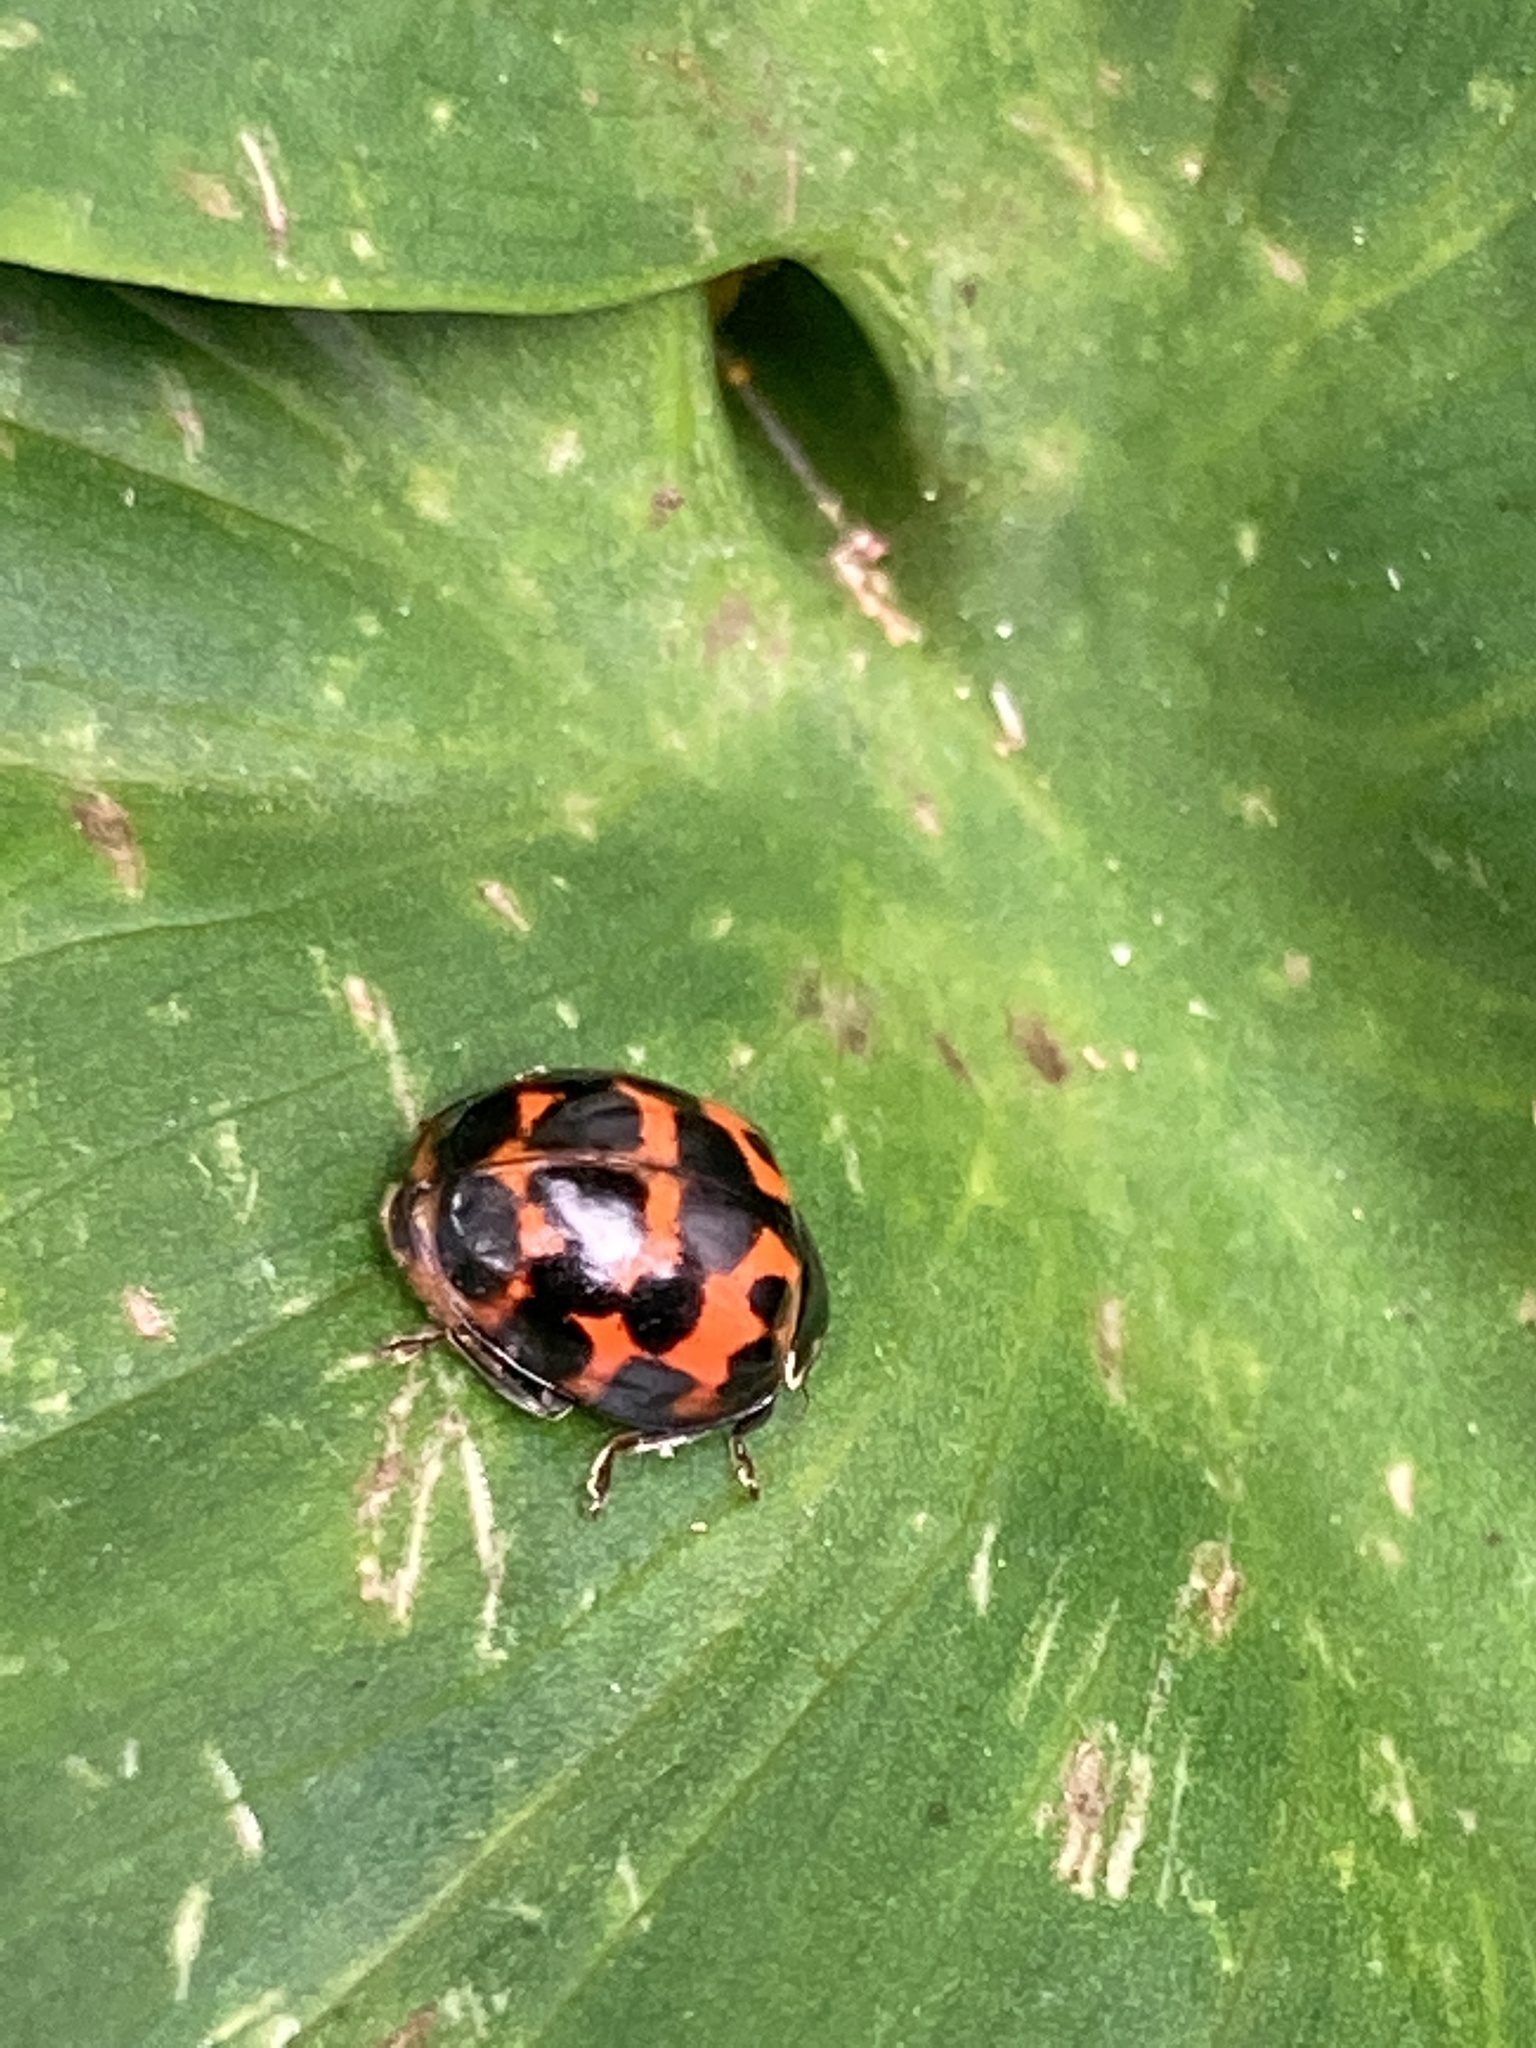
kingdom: Animalia
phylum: Arthropoda
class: Insecta
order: Coleoptera
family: Coccinellidae
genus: Harmonia
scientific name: Harmonia axyridis
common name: Harlequin ladybird
